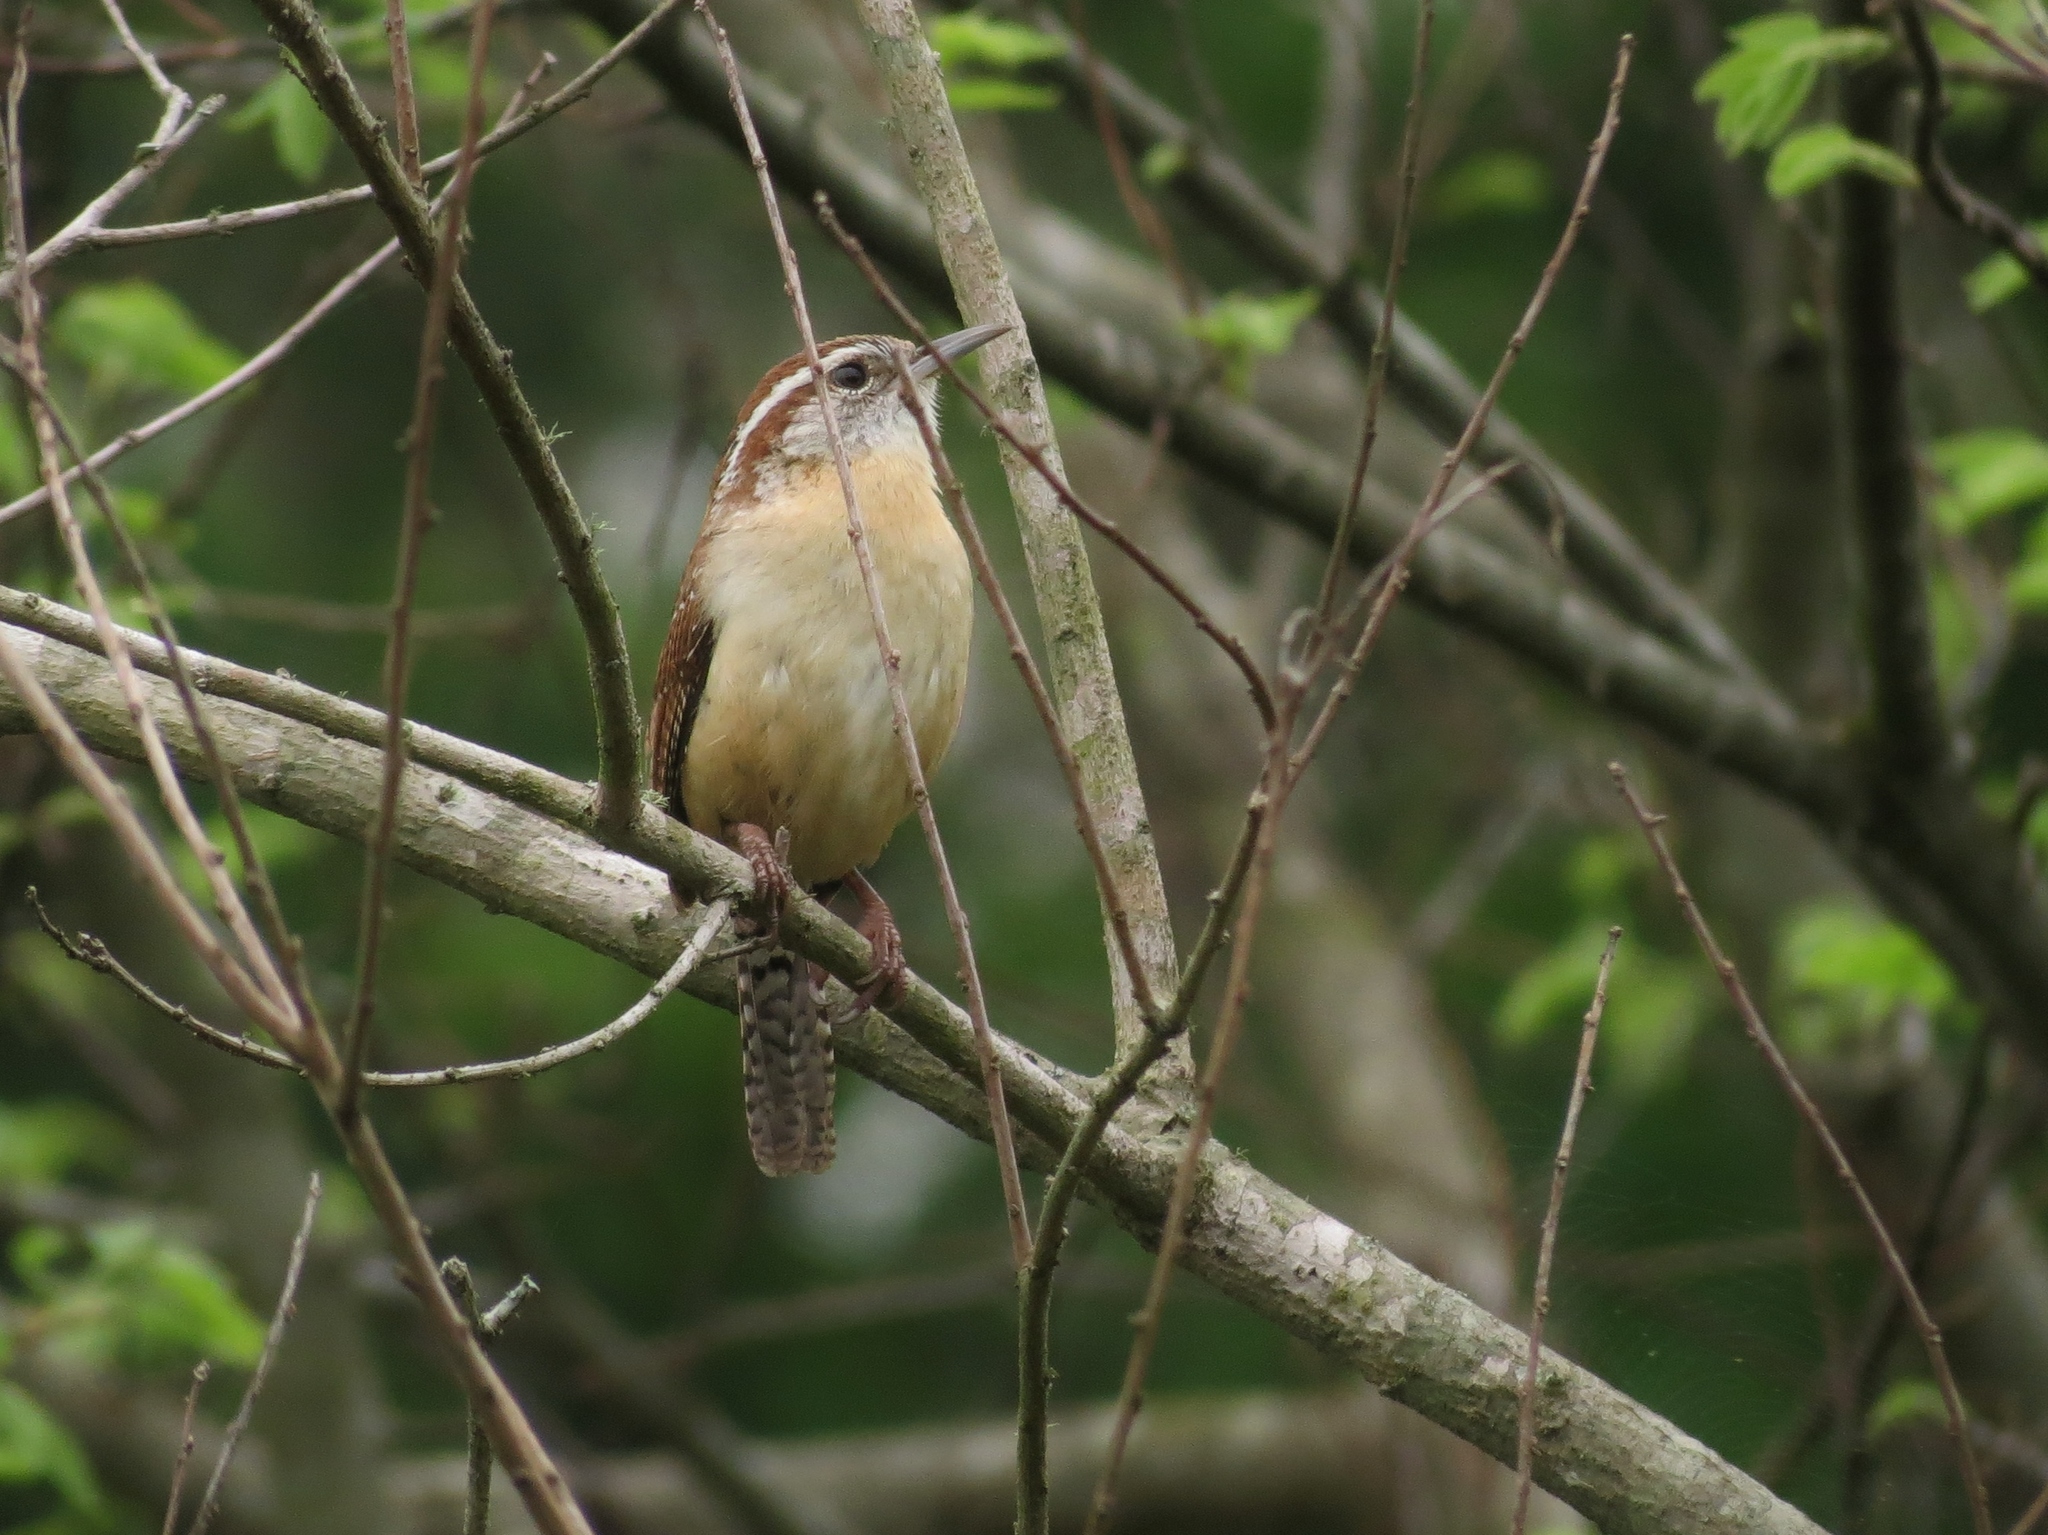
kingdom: Animalia
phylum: Chordata
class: Aves
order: Passeriformes
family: Troglodytidae
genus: Thryothorus
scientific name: Thryothorus ludovicianus
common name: Carolina wren
